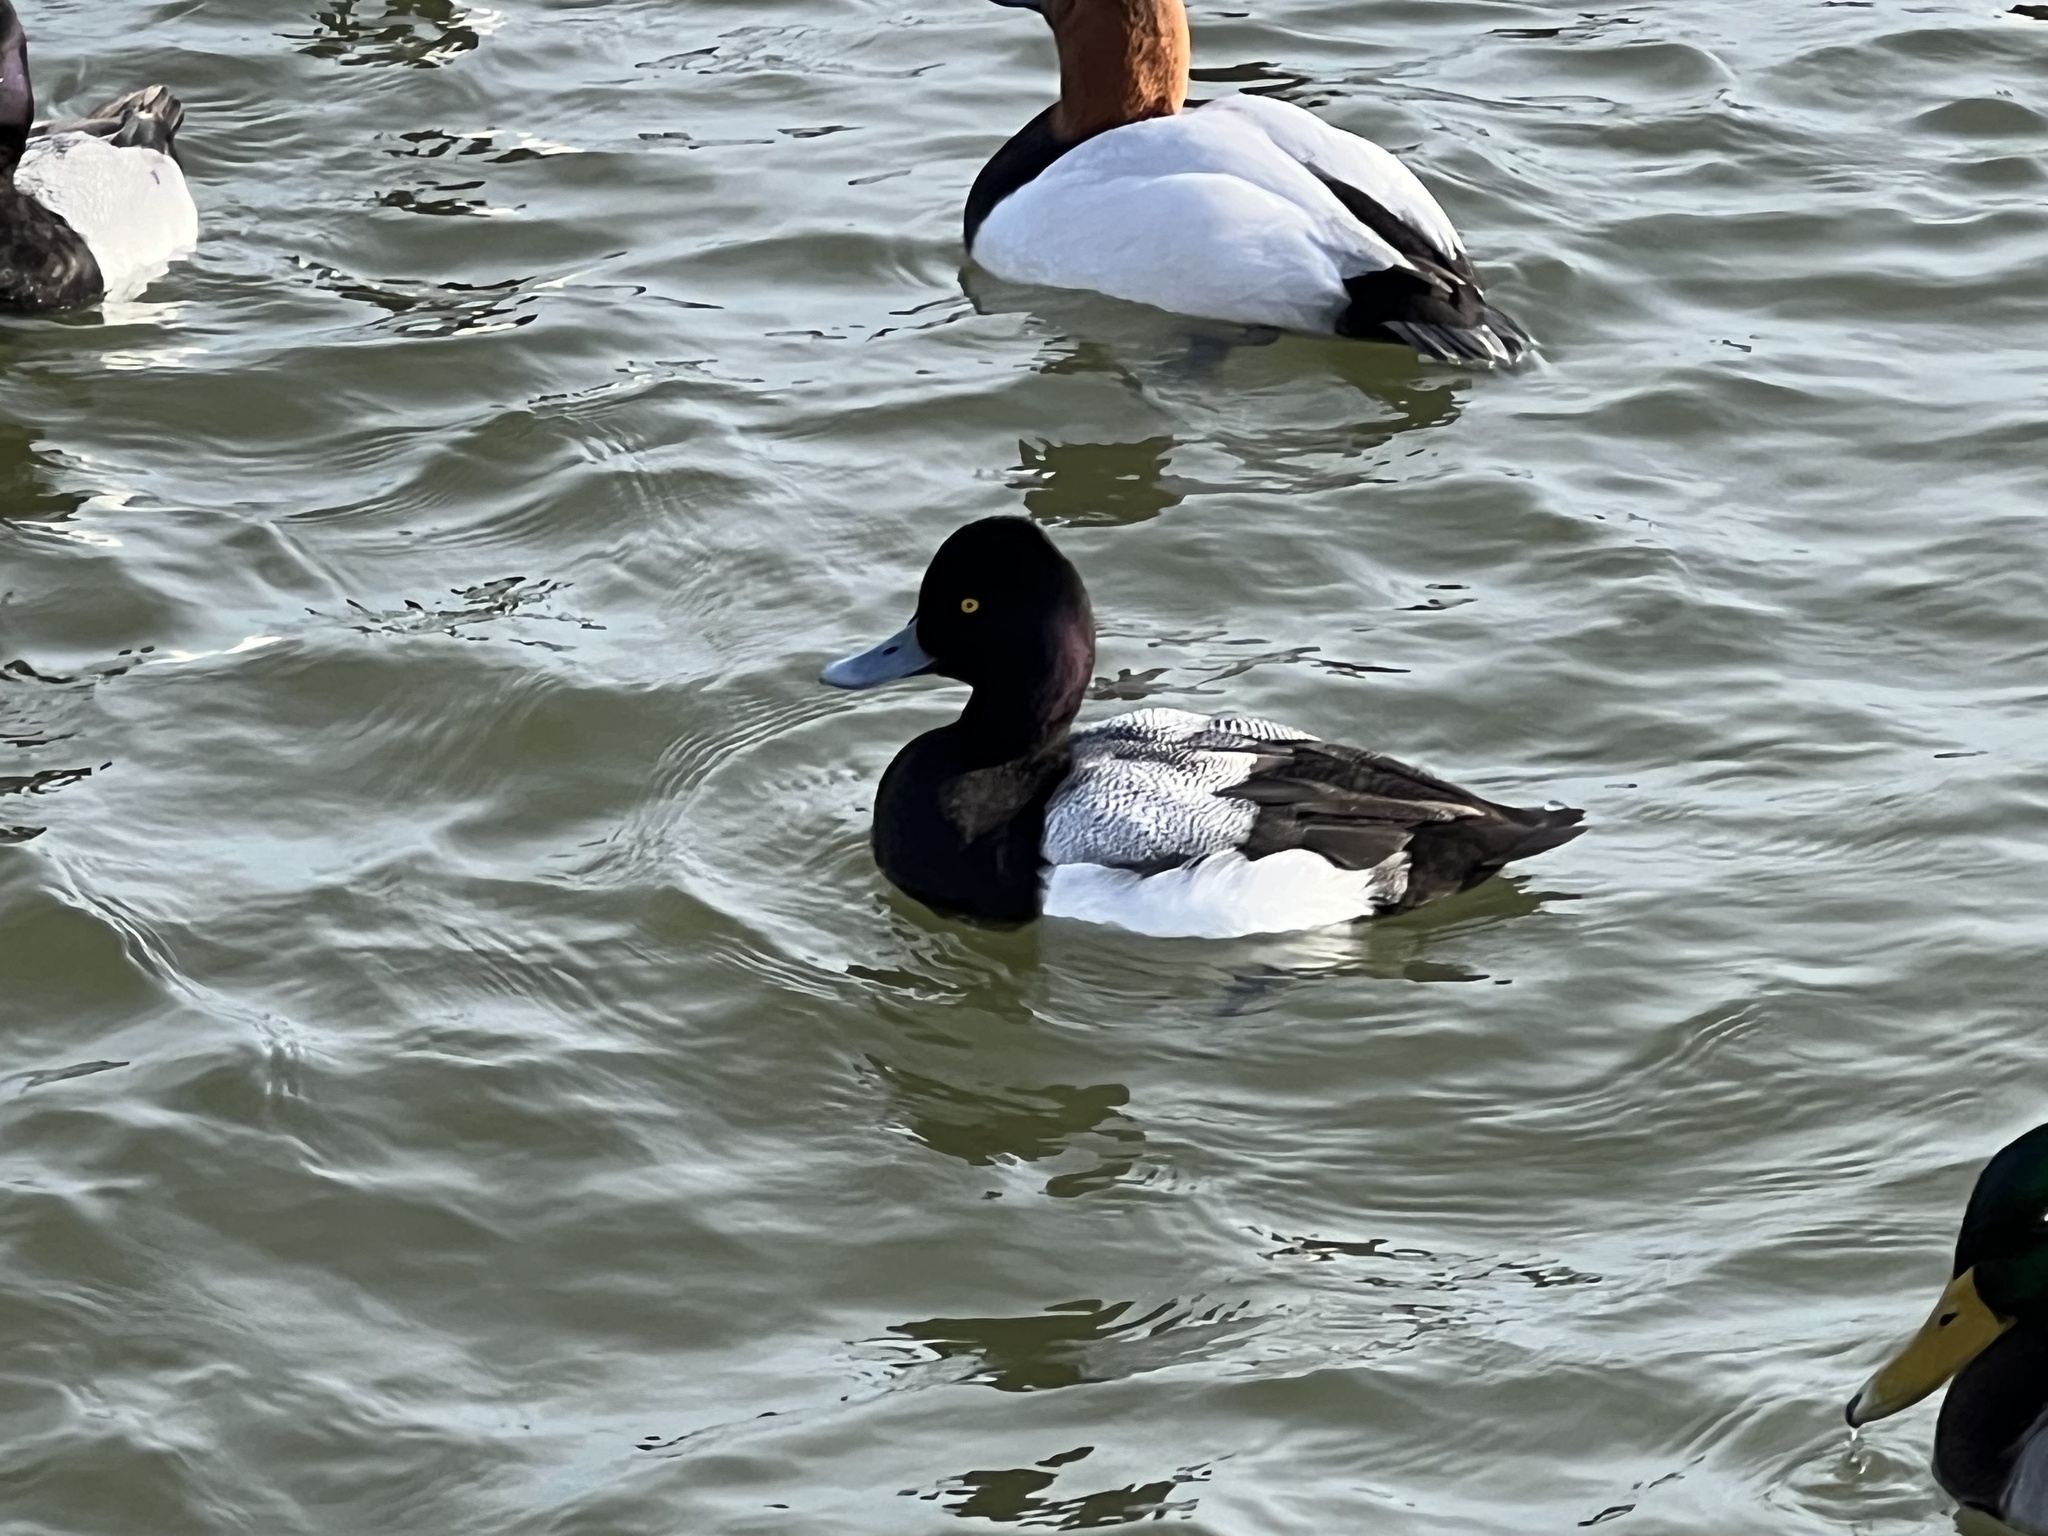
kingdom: Animalia
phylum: Chordata
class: Aves
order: Anseriformes
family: Anatidae
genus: Aythya
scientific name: Aythya affinis
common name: Lesser scaup
